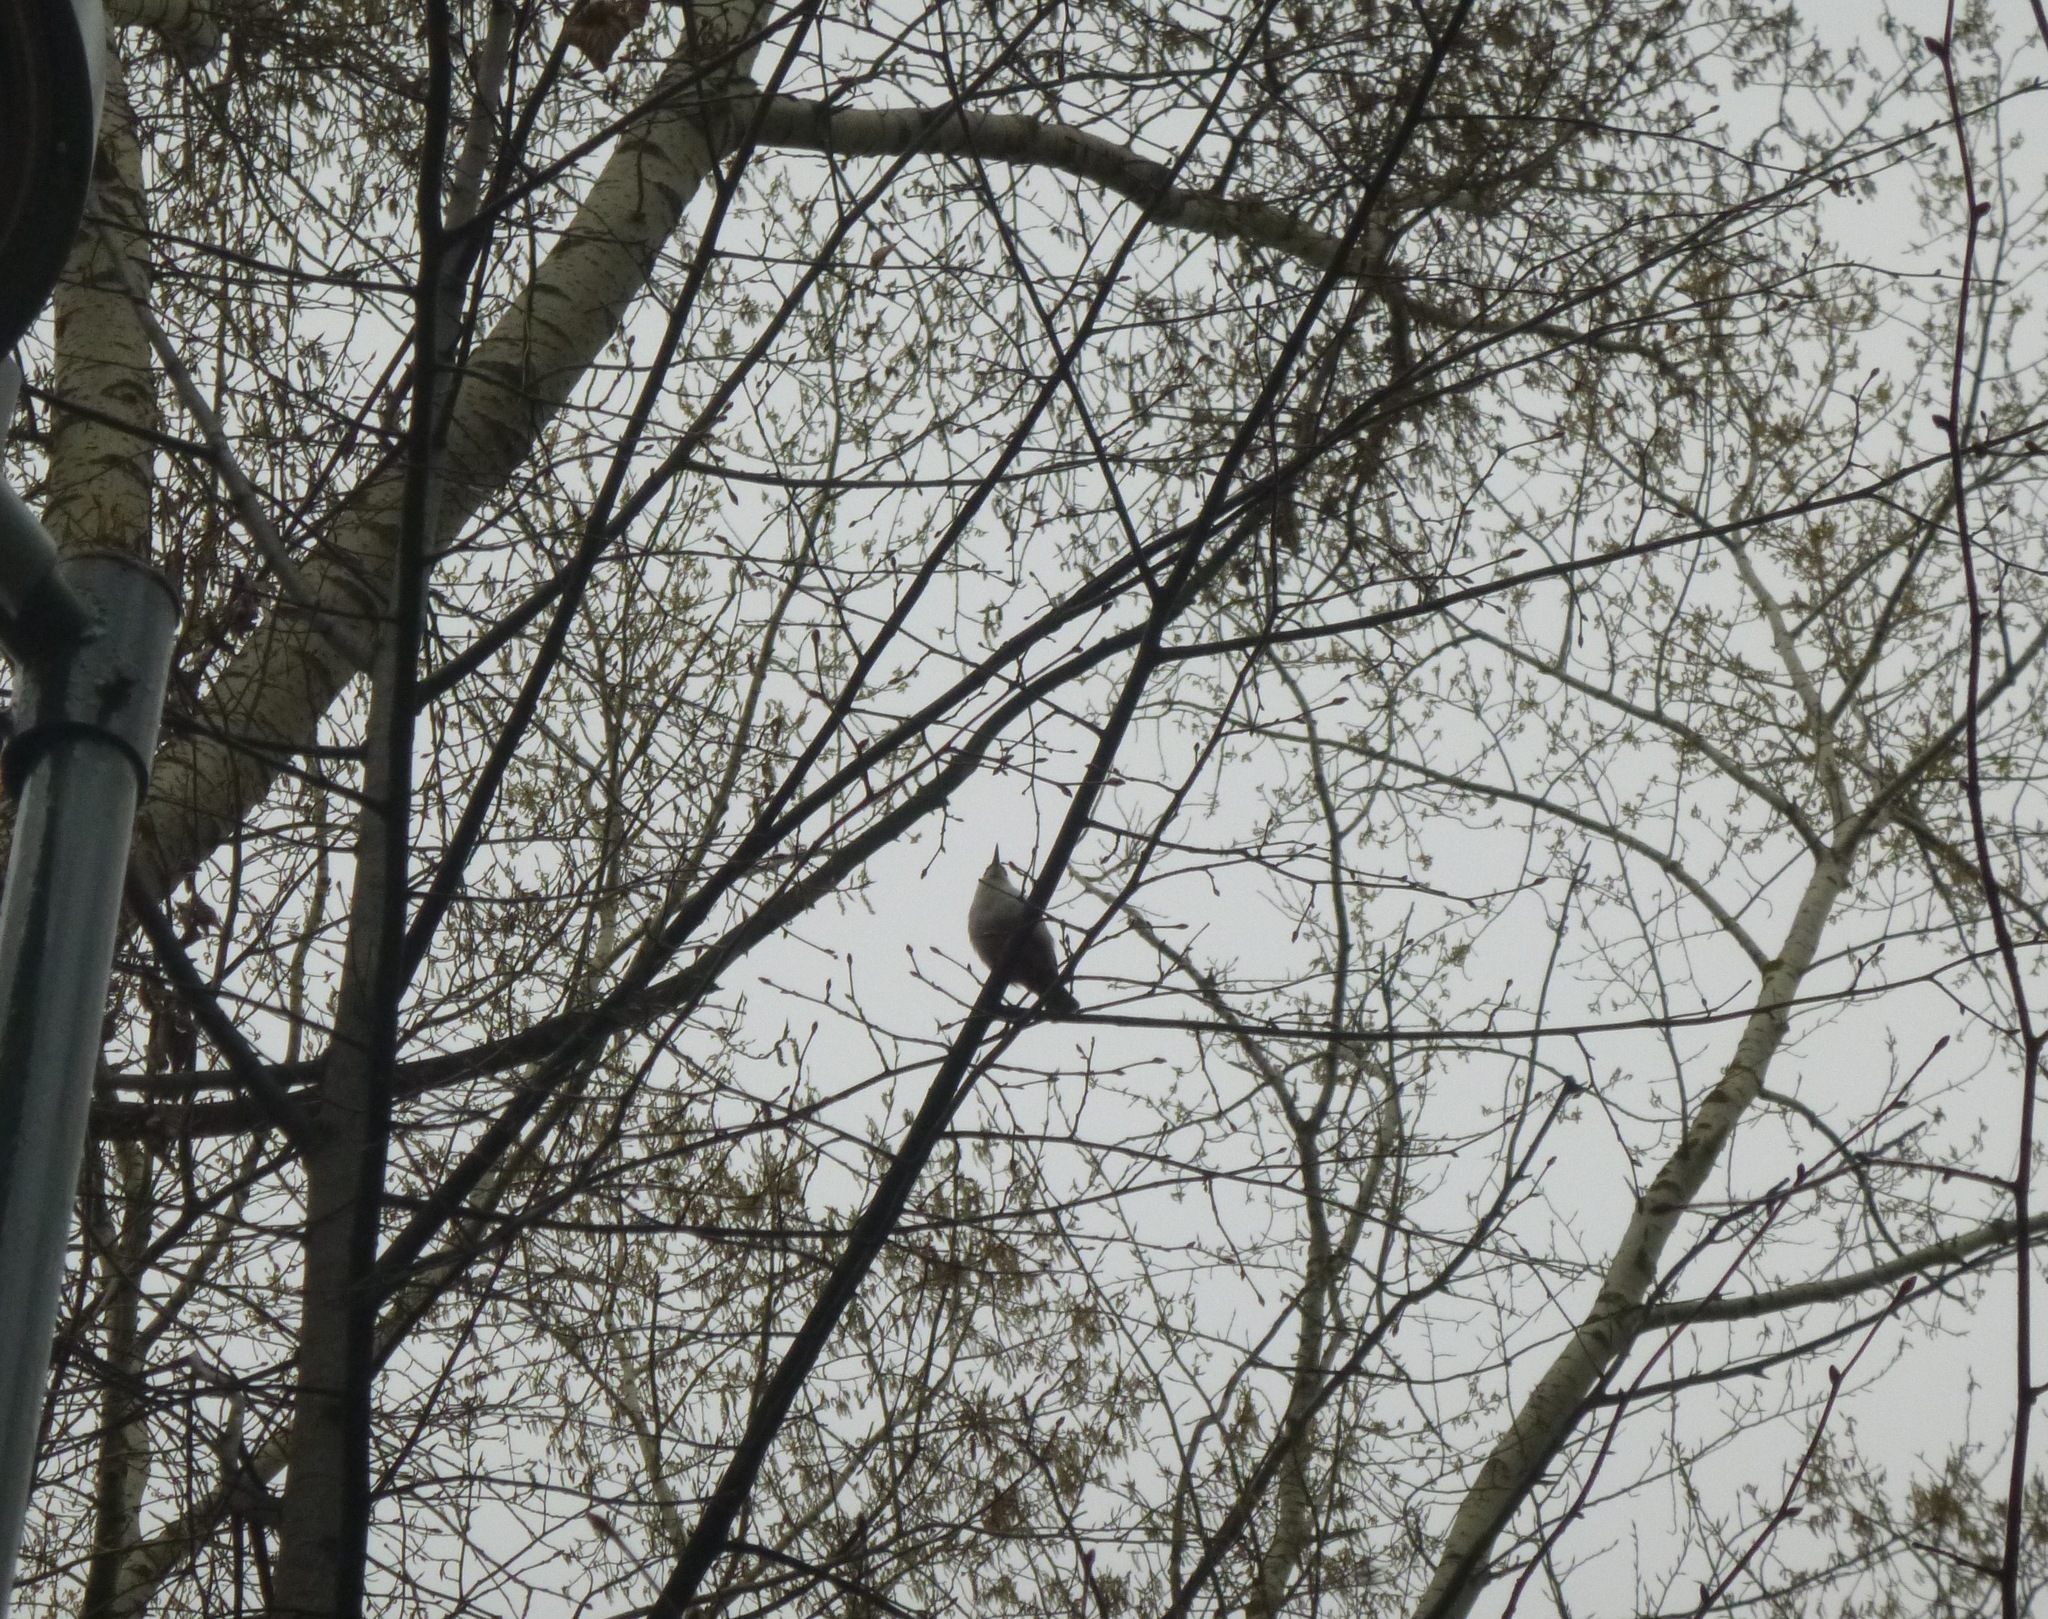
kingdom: Animalia
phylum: Chordata
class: Aves
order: Passeriformes
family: Sittidae
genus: Sitta
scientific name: Sitta europaea
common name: Eurasian nuthatch
